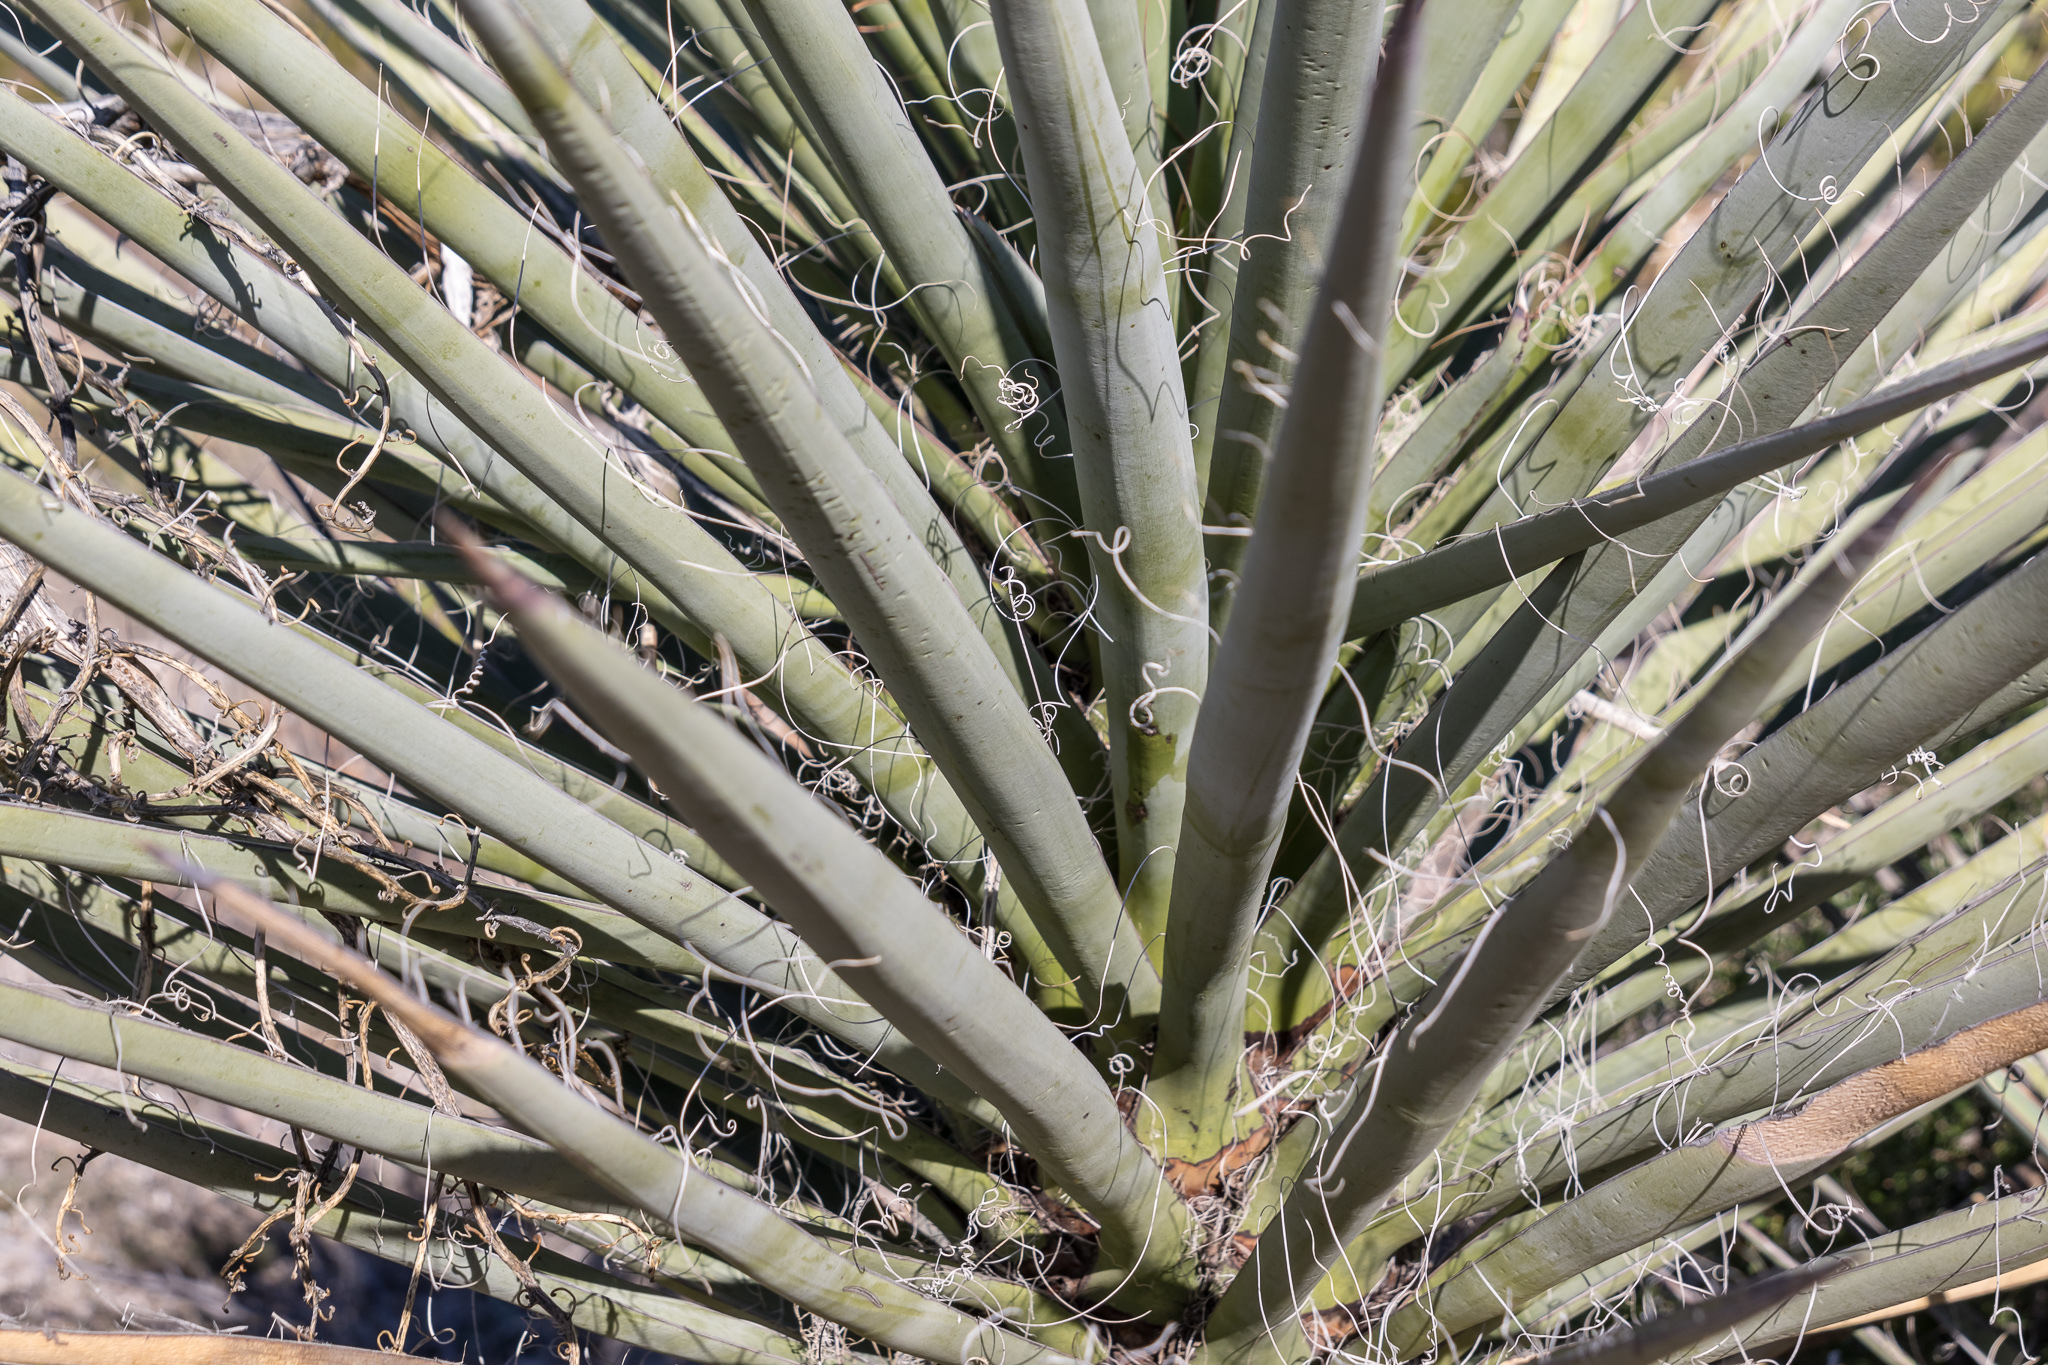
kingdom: Plantae
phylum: Tracheophyta
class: Liliopsida
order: Asparagales
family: Asparagaceae
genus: Yucca
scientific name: Yucca treculiana
